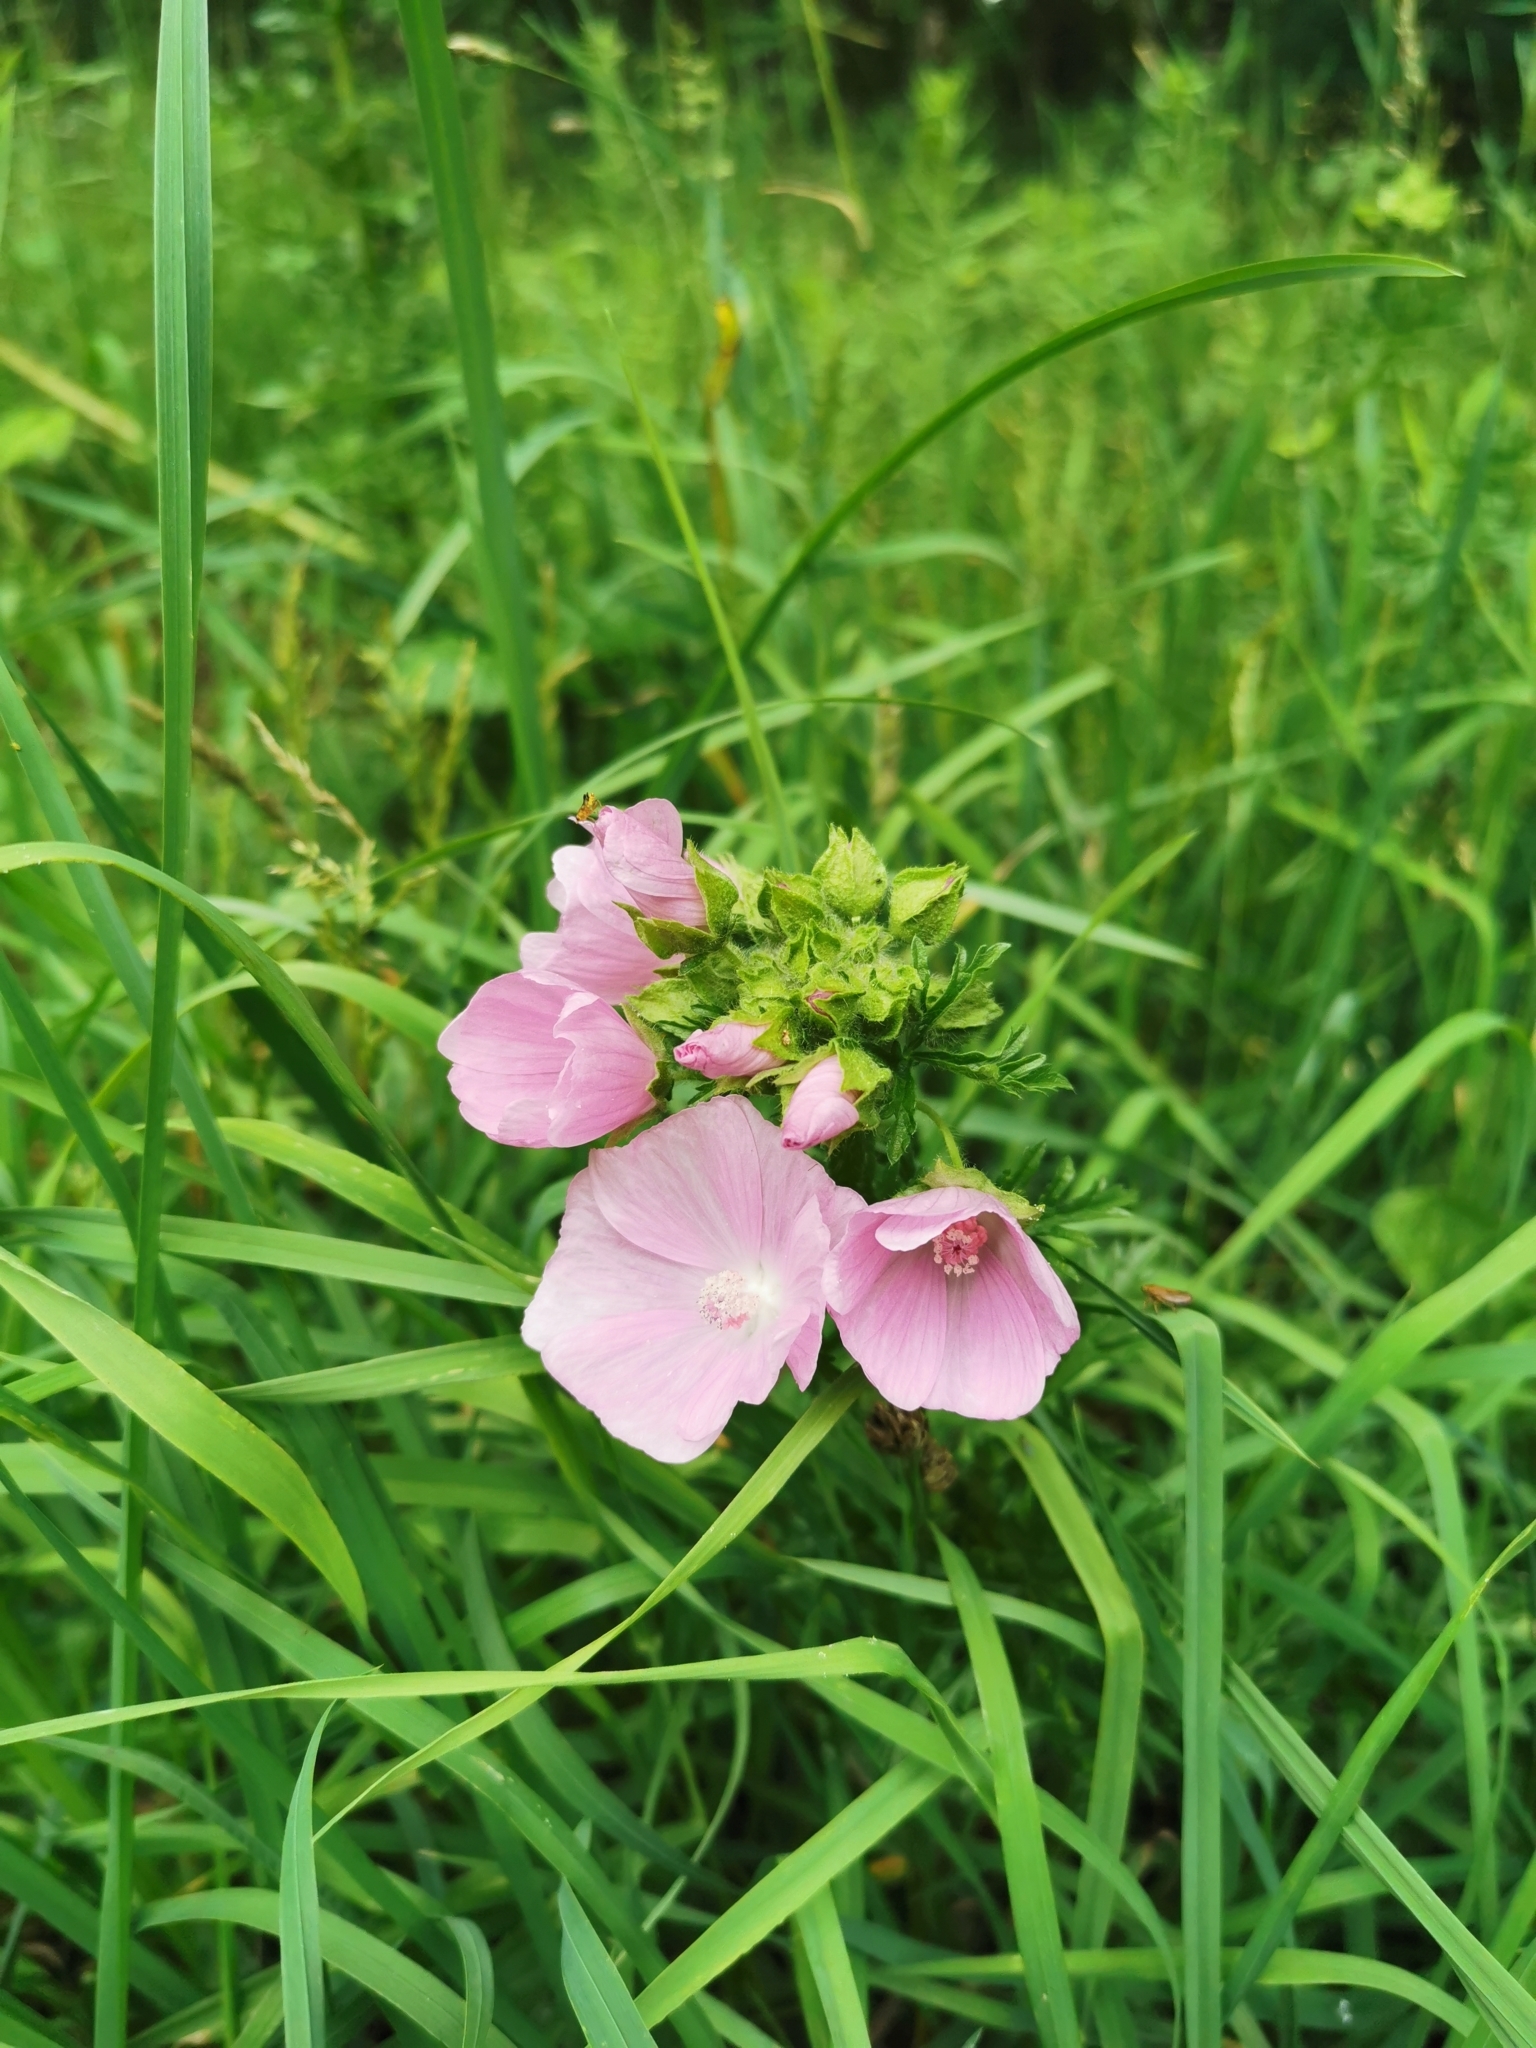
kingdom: Plantae
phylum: Tracheophyta
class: Magnoliopsida
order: Malvales
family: Malvaceae
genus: Malva
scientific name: Malva moschata
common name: Musk mallow
